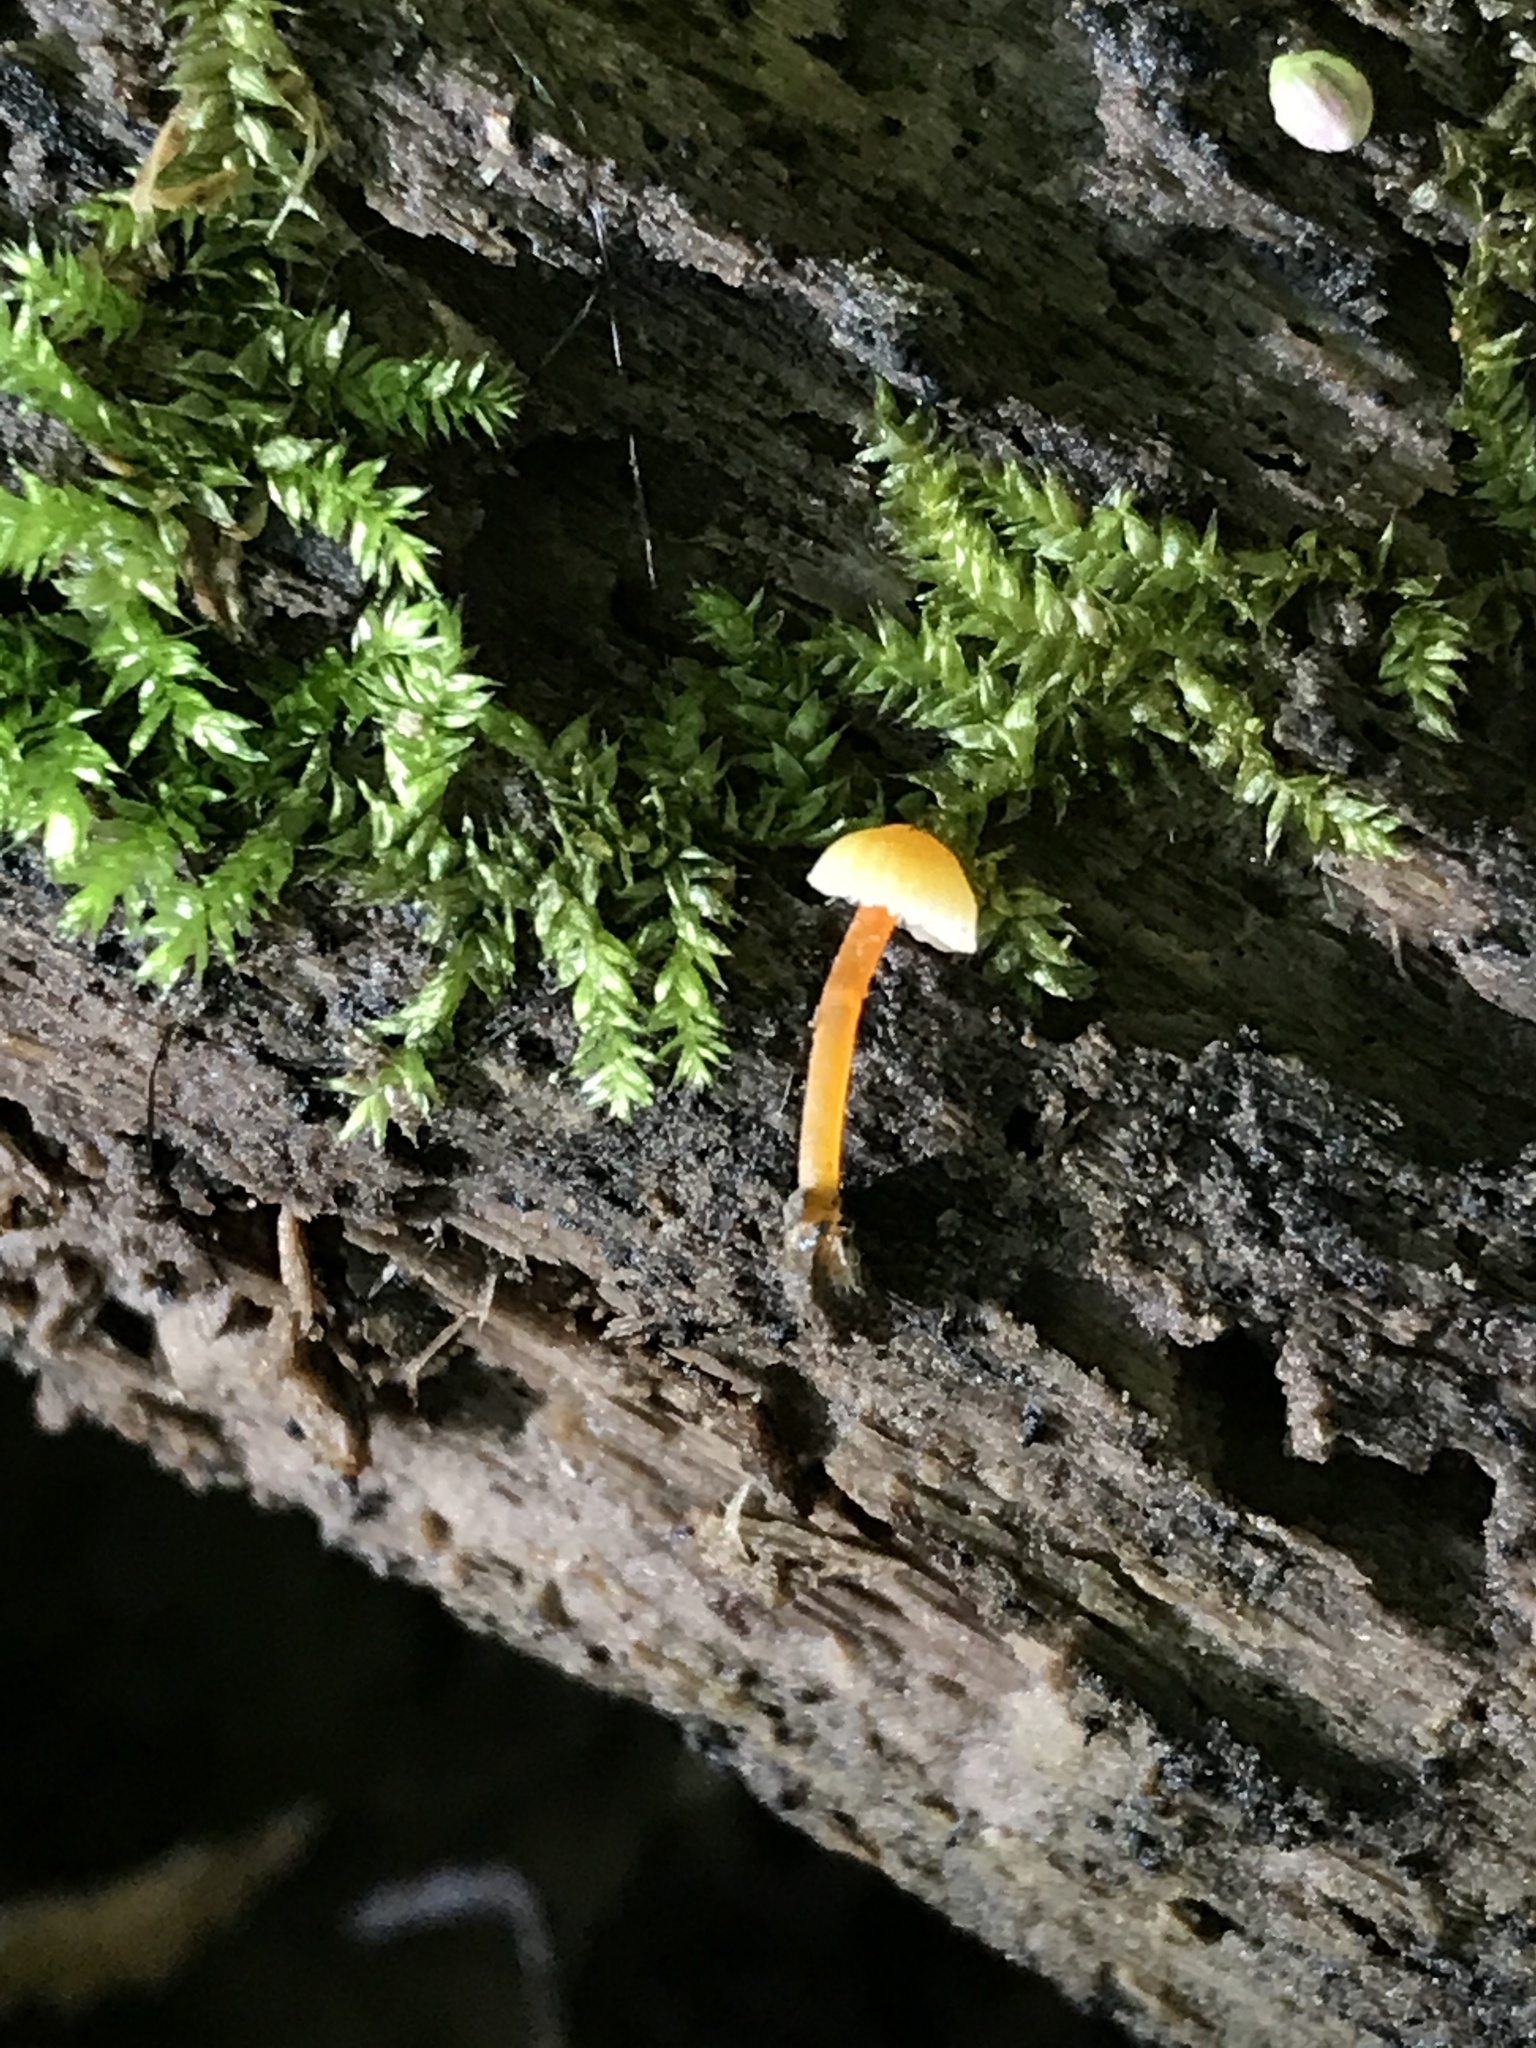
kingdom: Fungi
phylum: Basidiomycota
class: Agaricomycetes
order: Agaricales
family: Mycenaceae
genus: Mycena
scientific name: Mycena crocea
